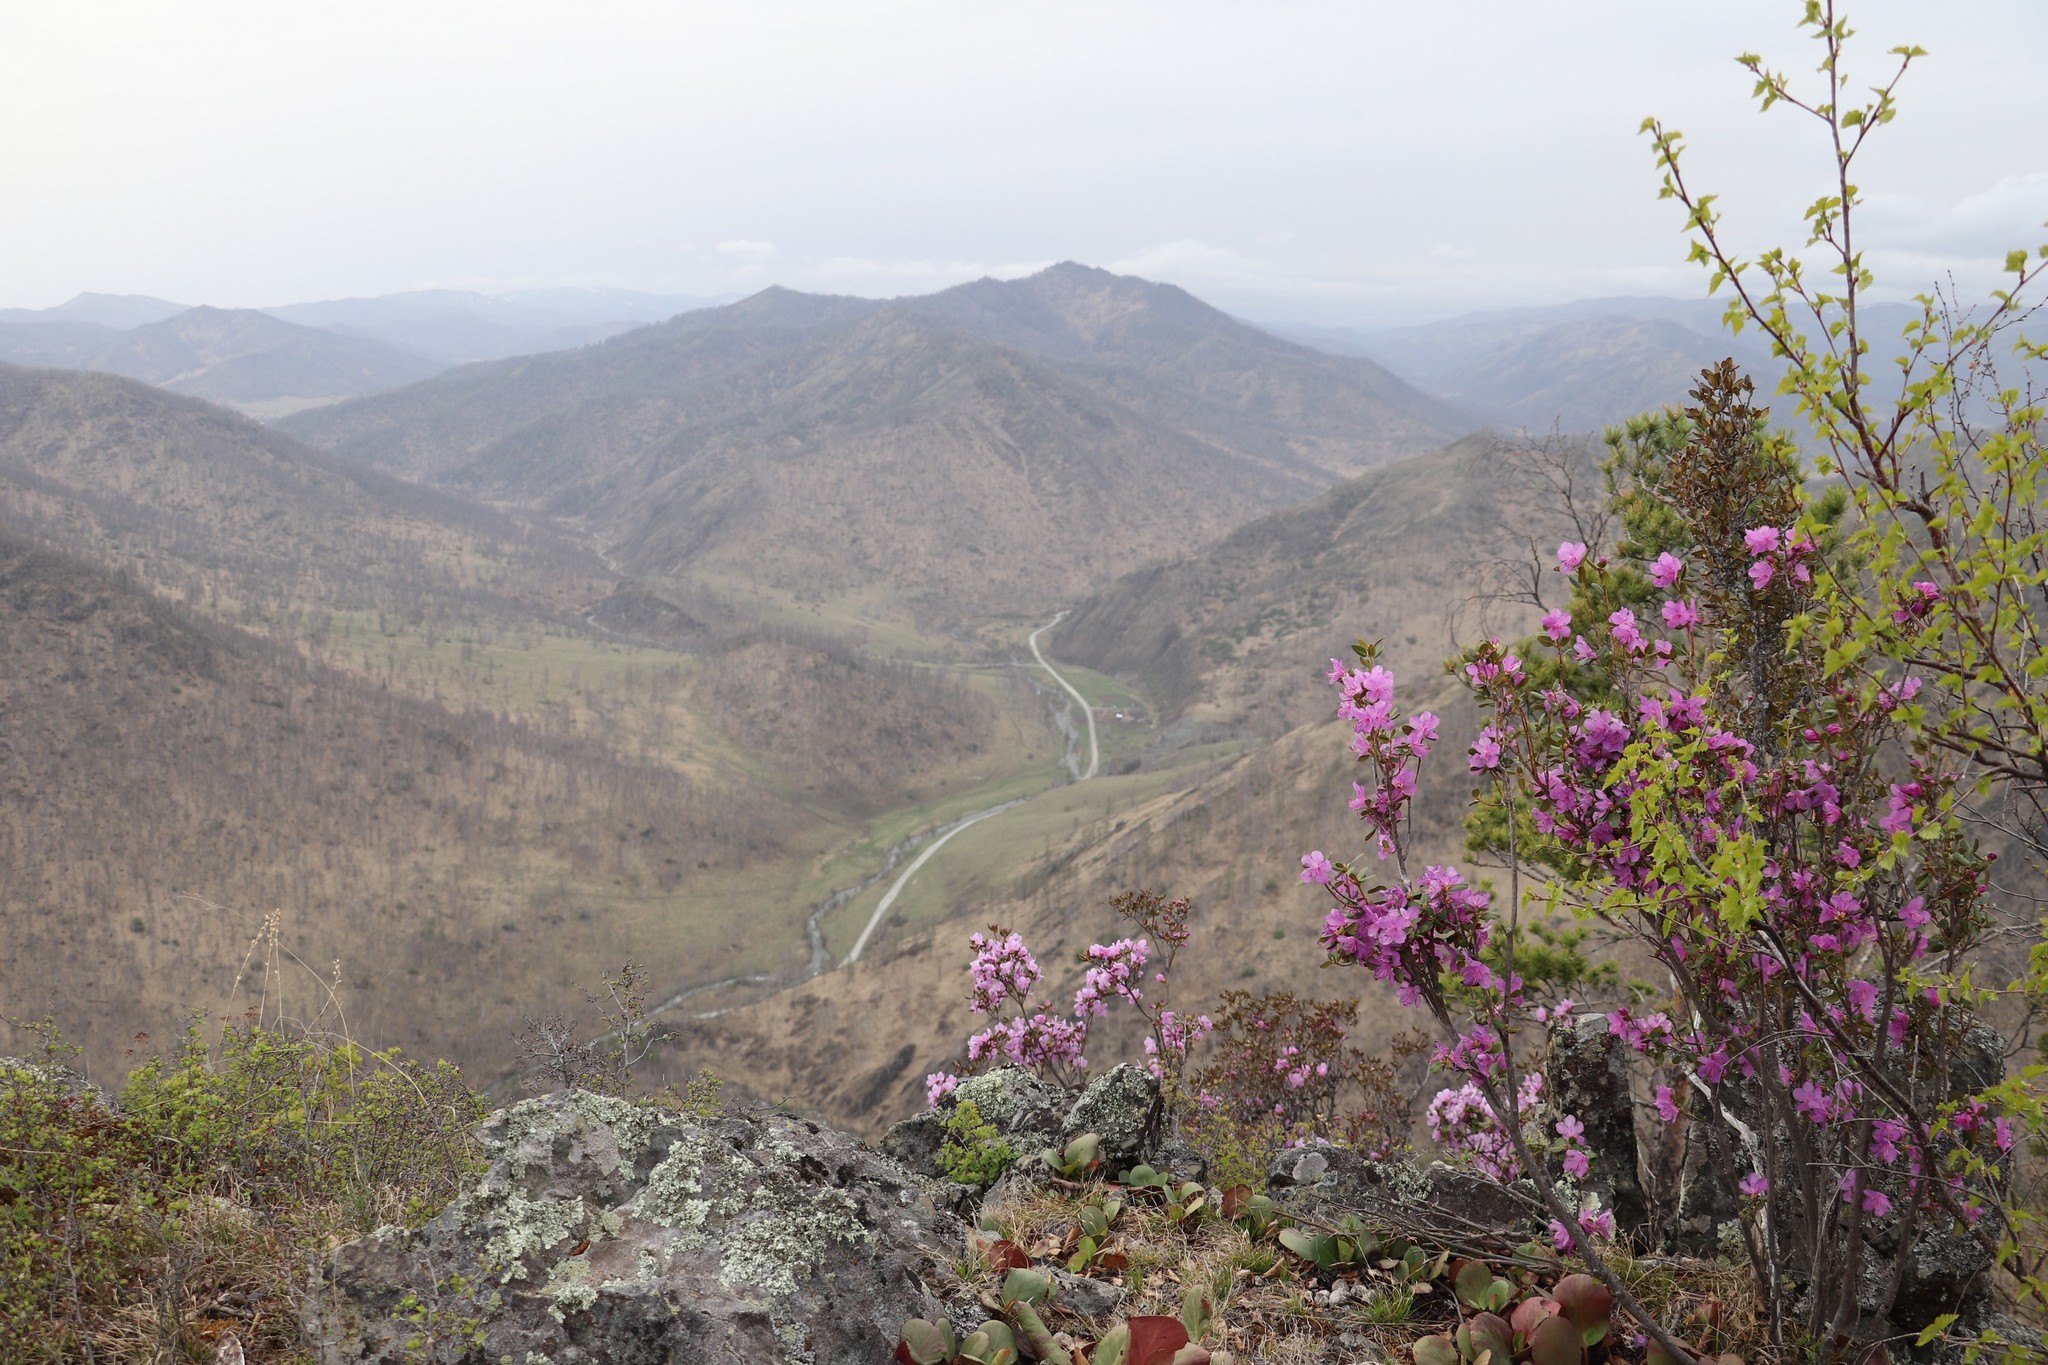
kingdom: Plantae
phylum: Tracheophyta
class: Magnoliopsida
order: Ericales
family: Ericaceae
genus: Rhododendron
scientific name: Rhododendron dauricum
